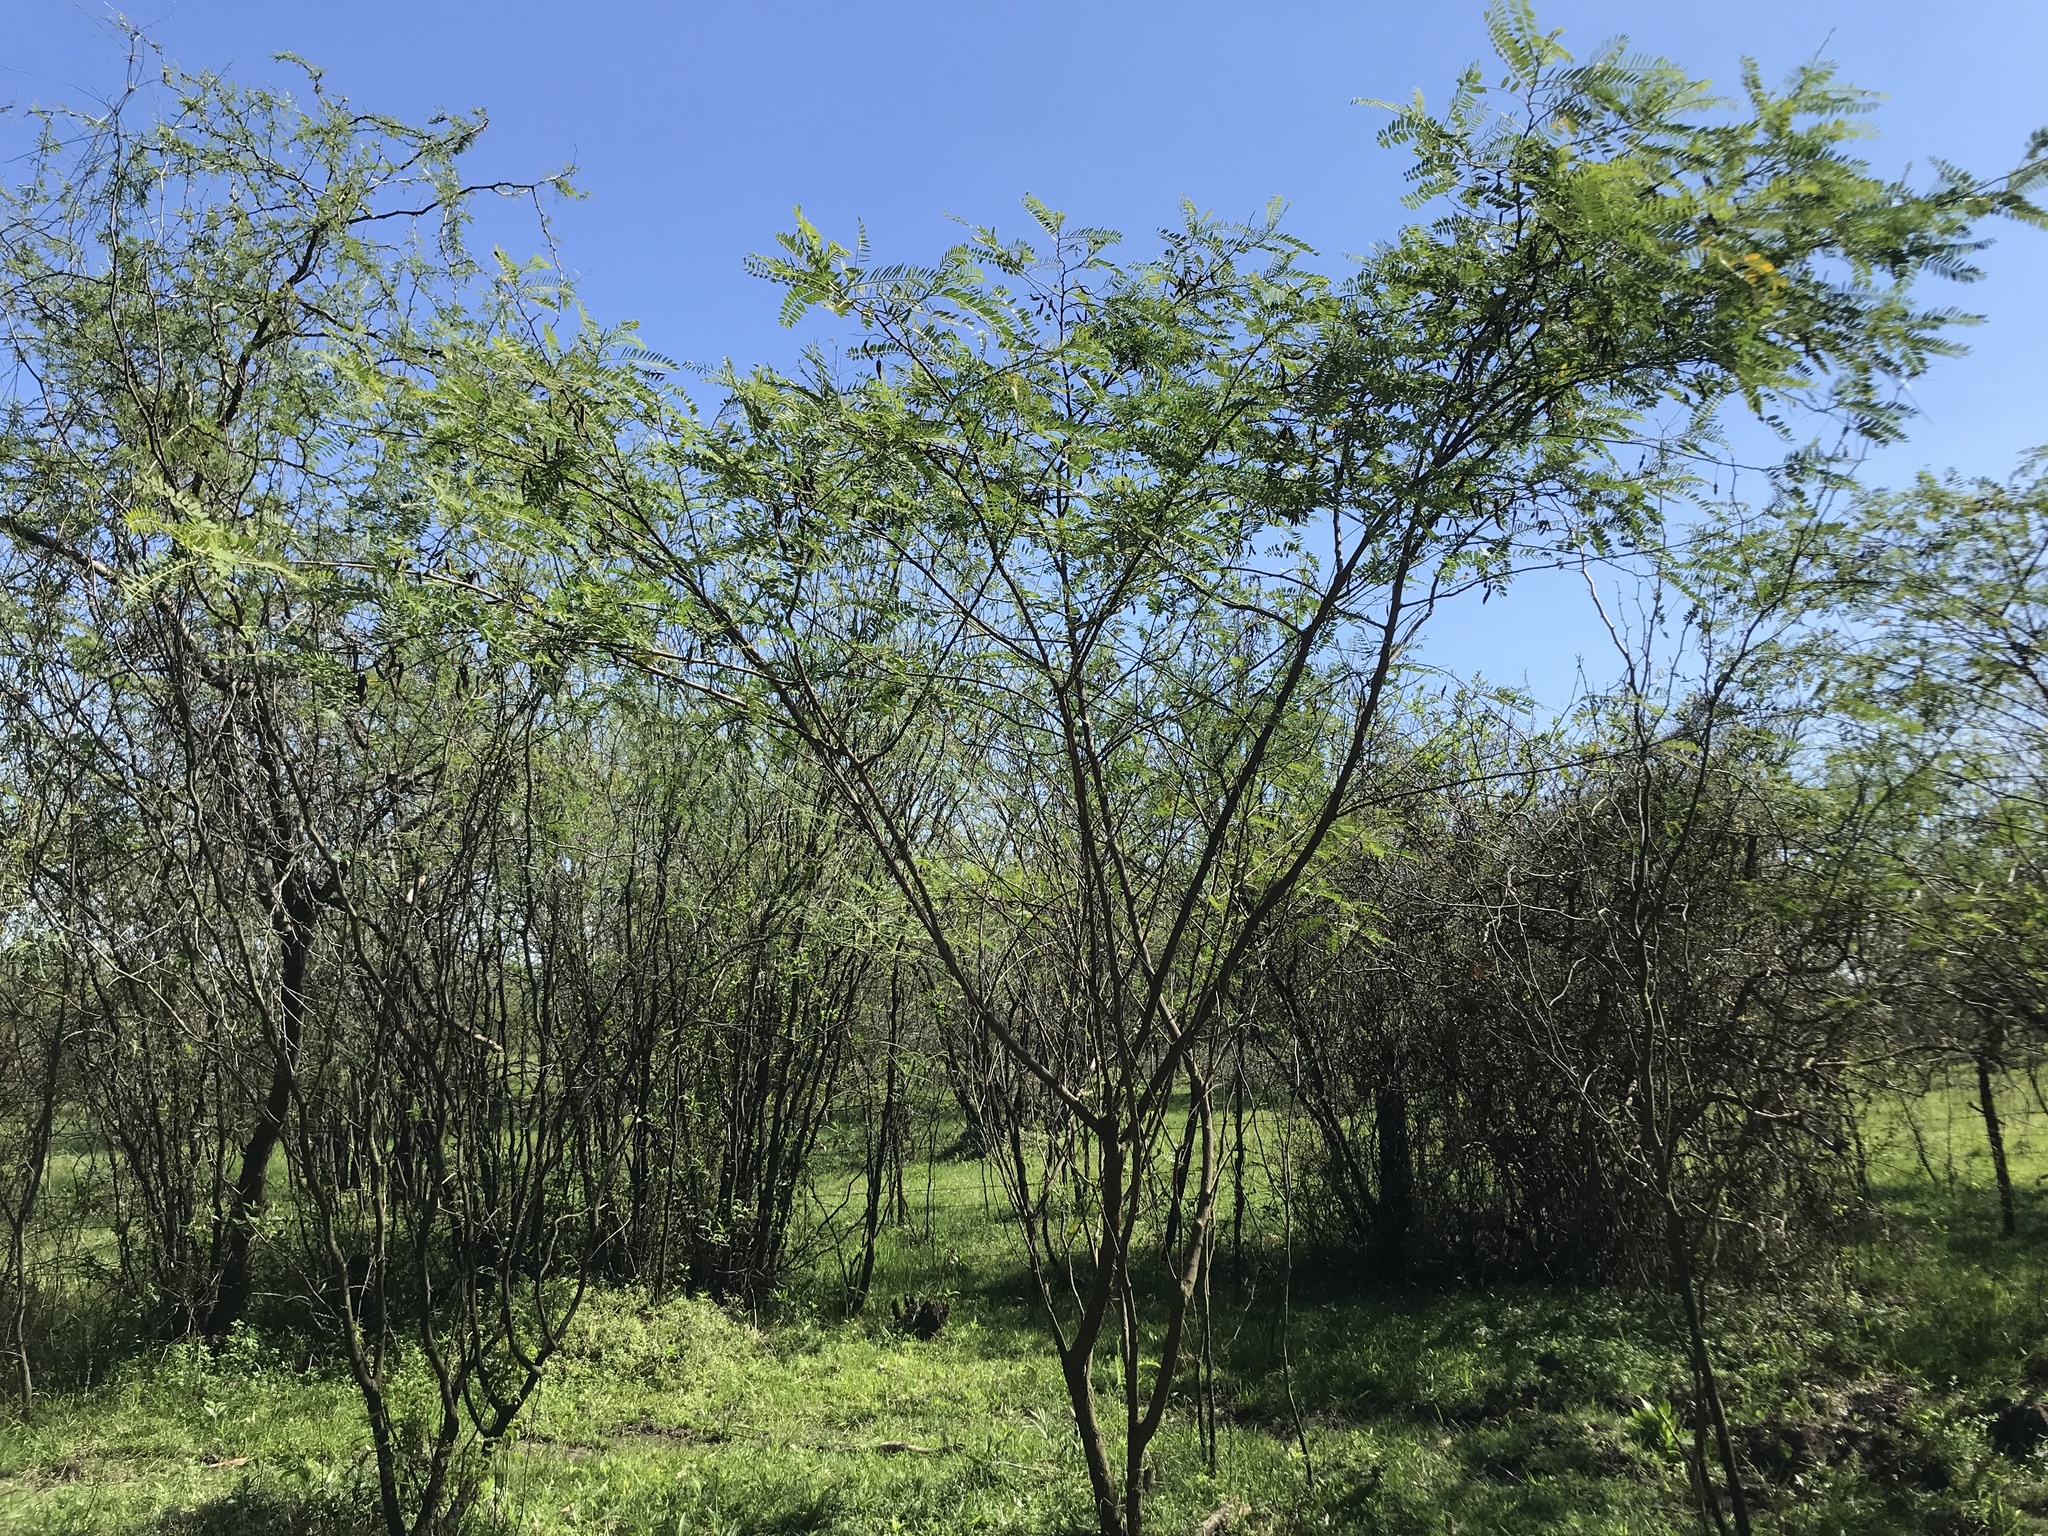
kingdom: Plantae
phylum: Tracheophyta
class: Magnoliopsida
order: Fabales
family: Fabaceae
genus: Sesbania
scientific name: Sesbania punicea
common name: Rattlebox
